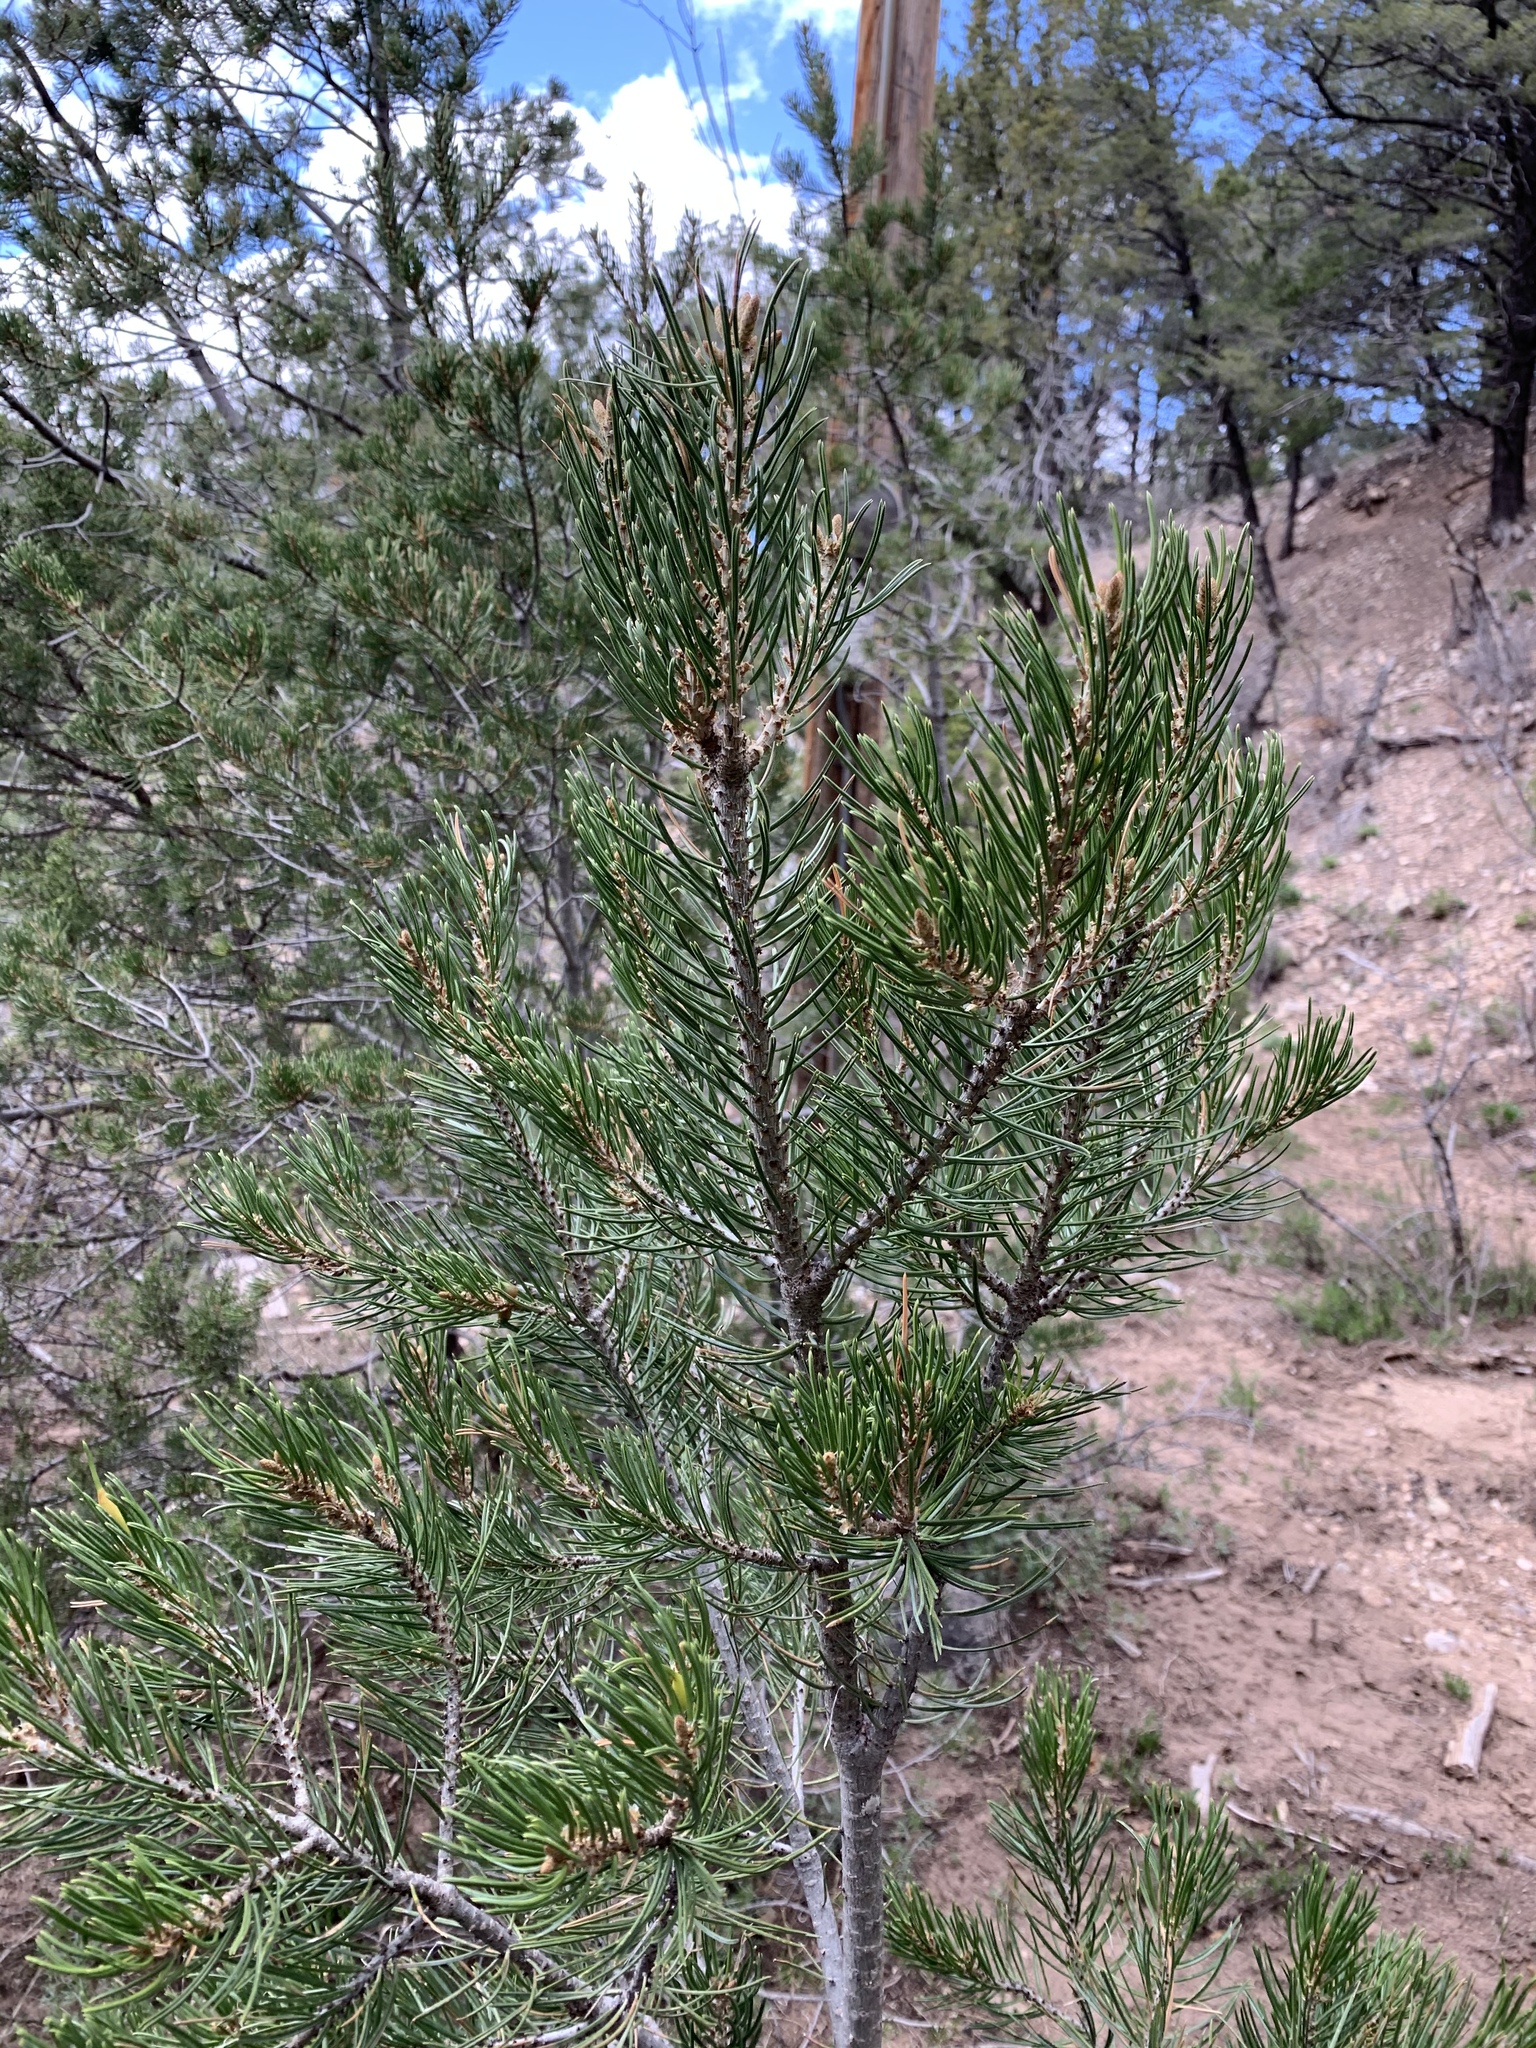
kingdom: Plantae
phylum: Tracheophyta
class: Pinopsida
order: Pinales
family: Pinaceae
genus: Pinus
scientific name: Pinus edulis
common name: Colorado pinyon
